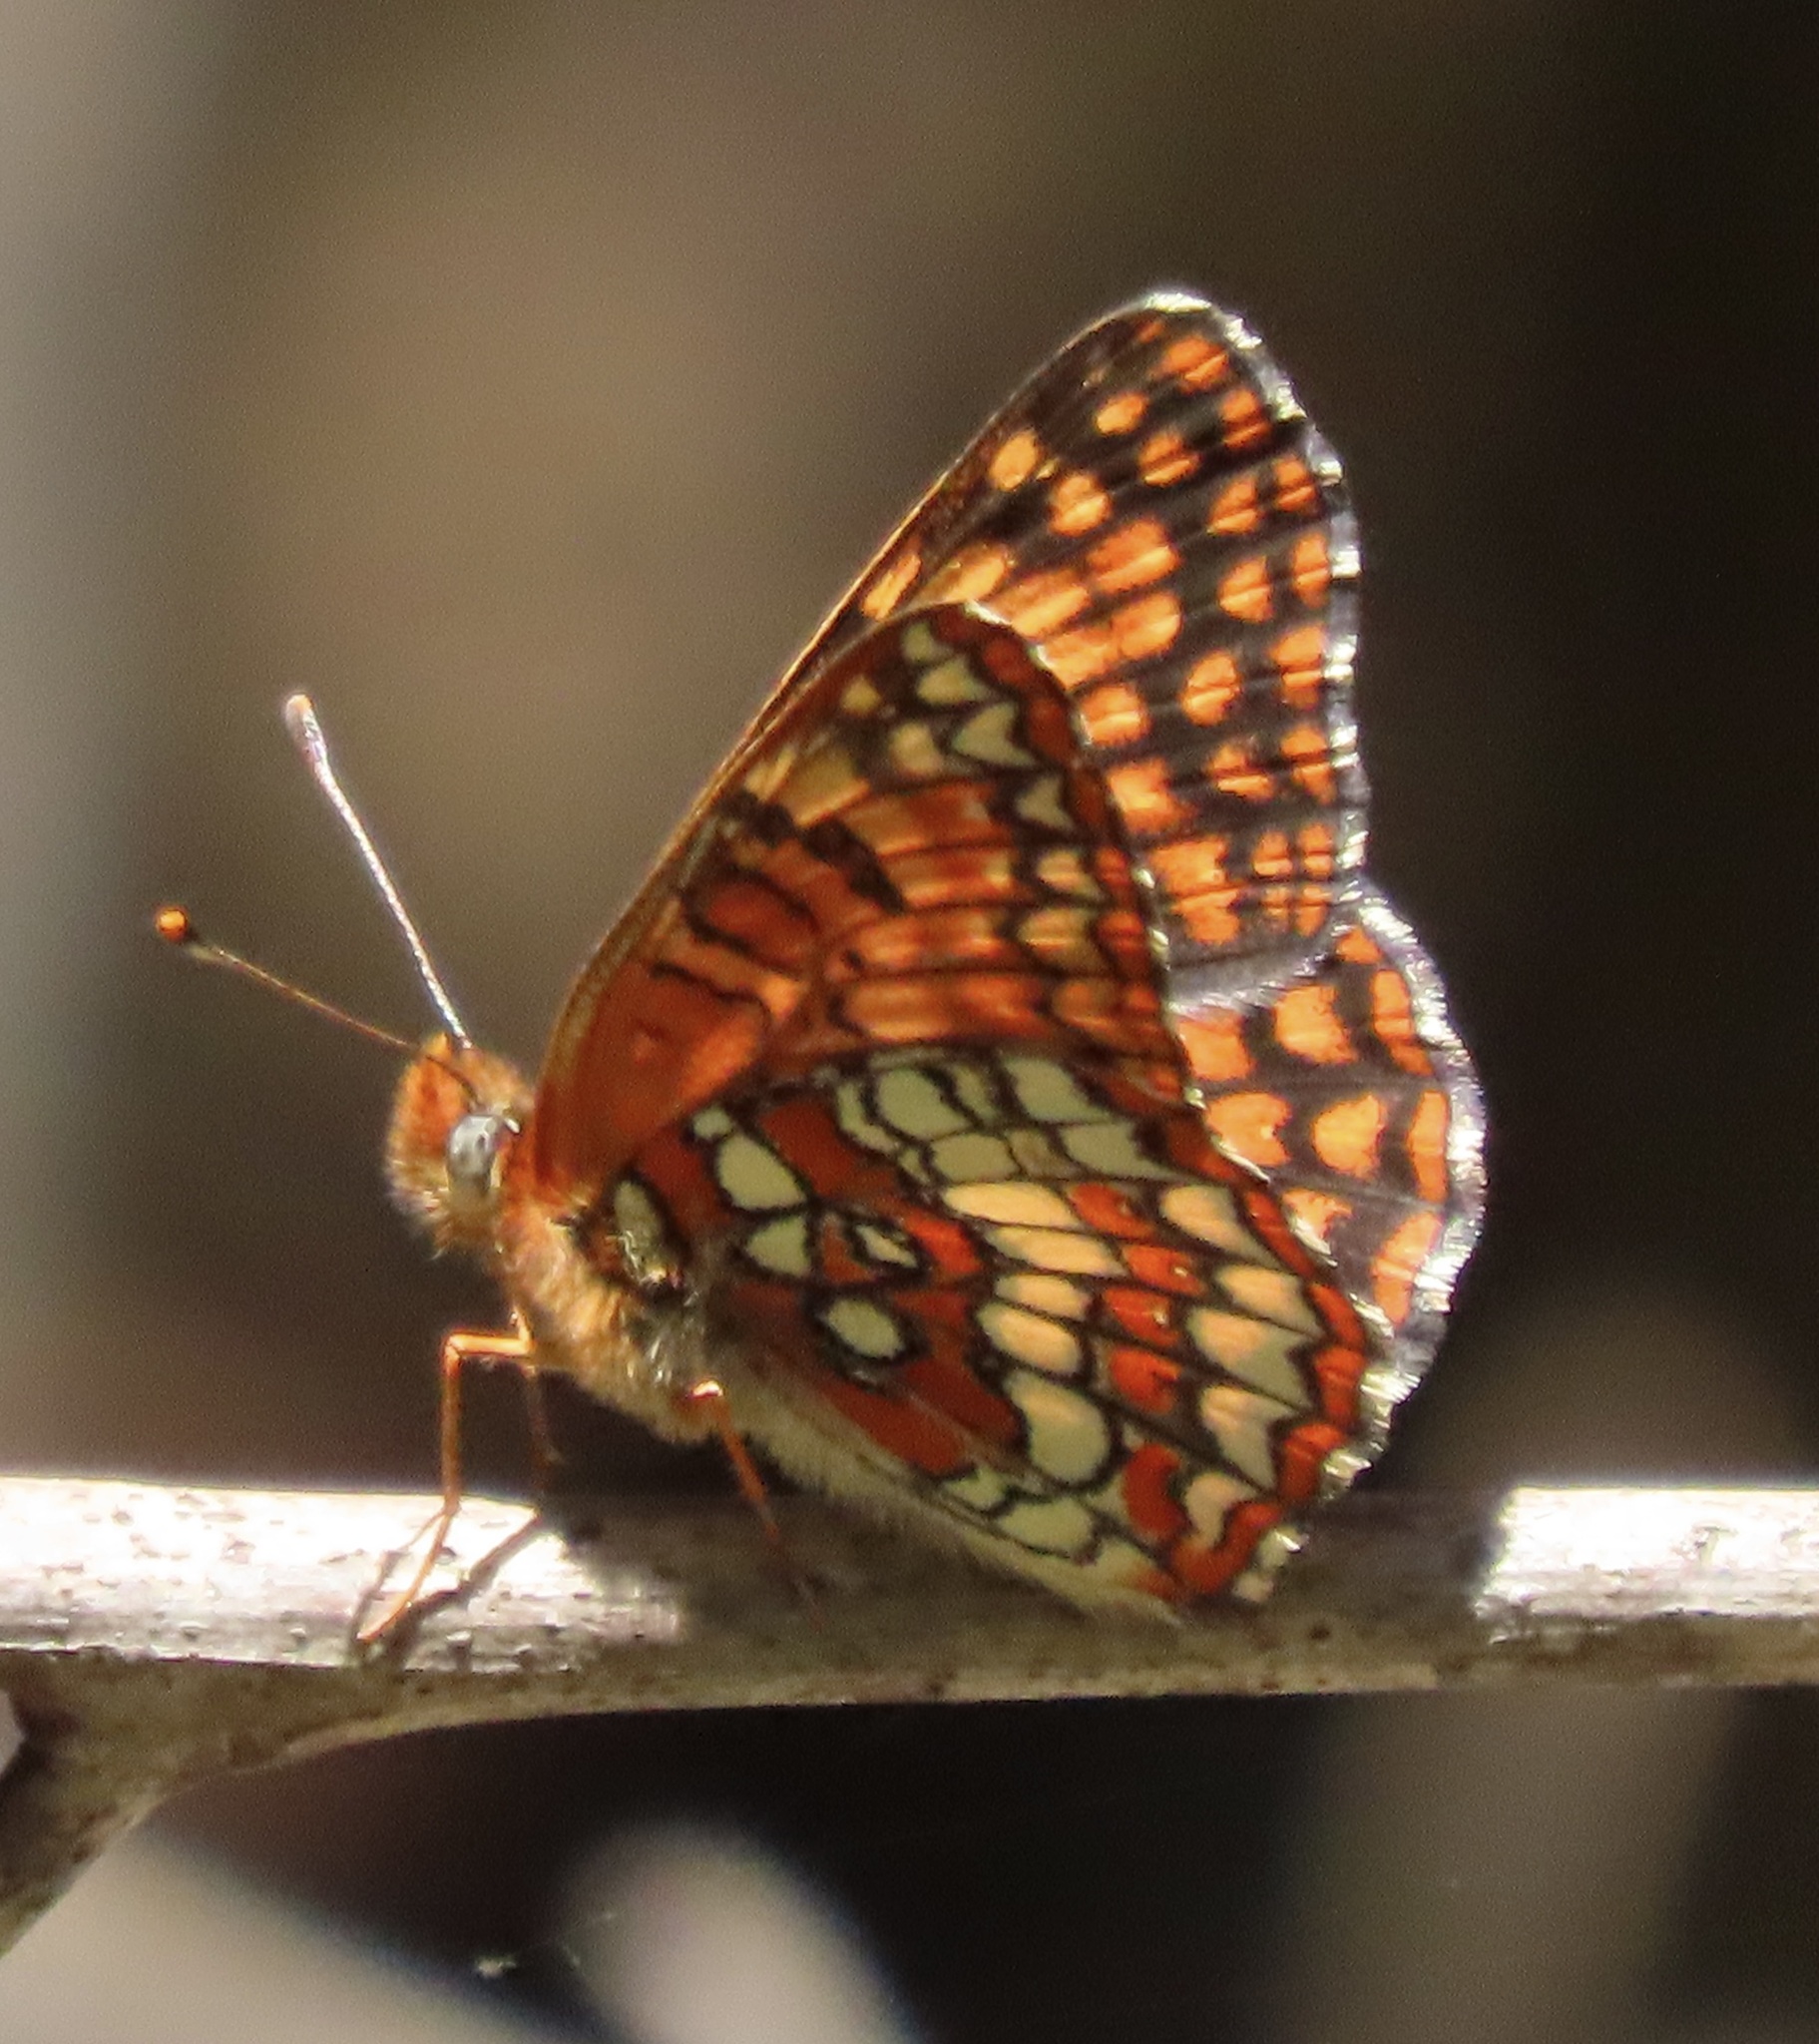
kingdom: Animalia
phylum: Arthropoda
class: Insecta
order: Lepidoptera
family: Nymphalidae
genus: Chlosyne
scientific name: Chlosyne palla
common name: Northern checkerspot
